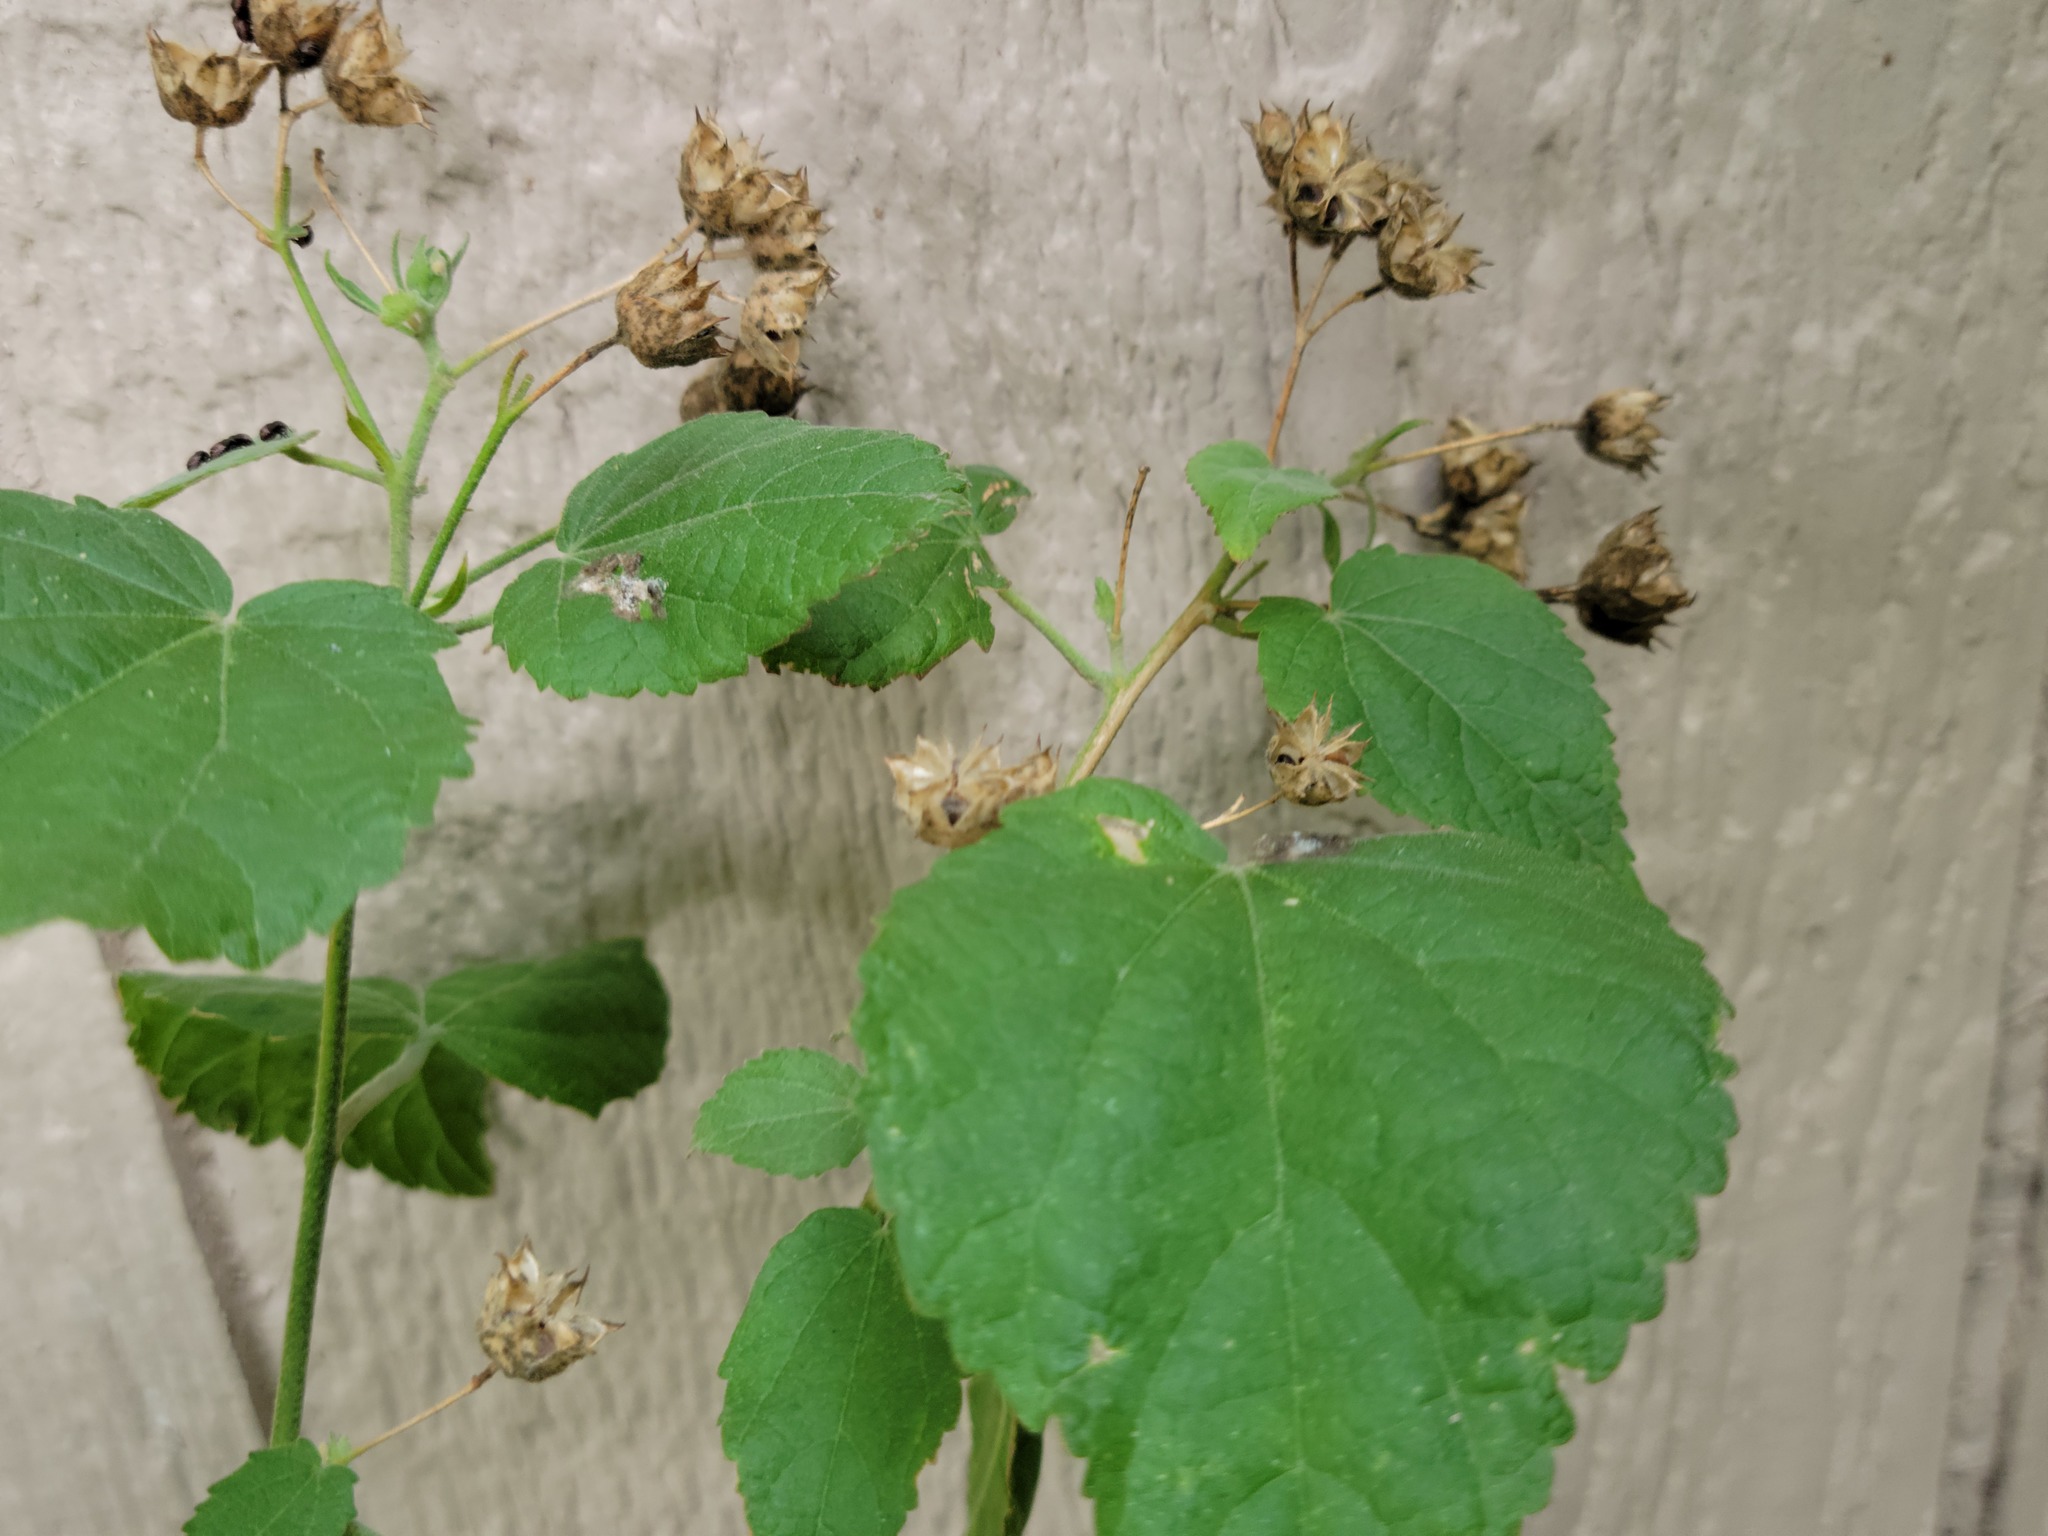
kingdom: Plantae
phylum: Tracheophyta
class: Magnoliopsida
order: Malvales
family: Malvaceae
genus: Pseudabutilon
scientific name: Pseudabutilon umbellatum
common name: Umbrella indian mallow
